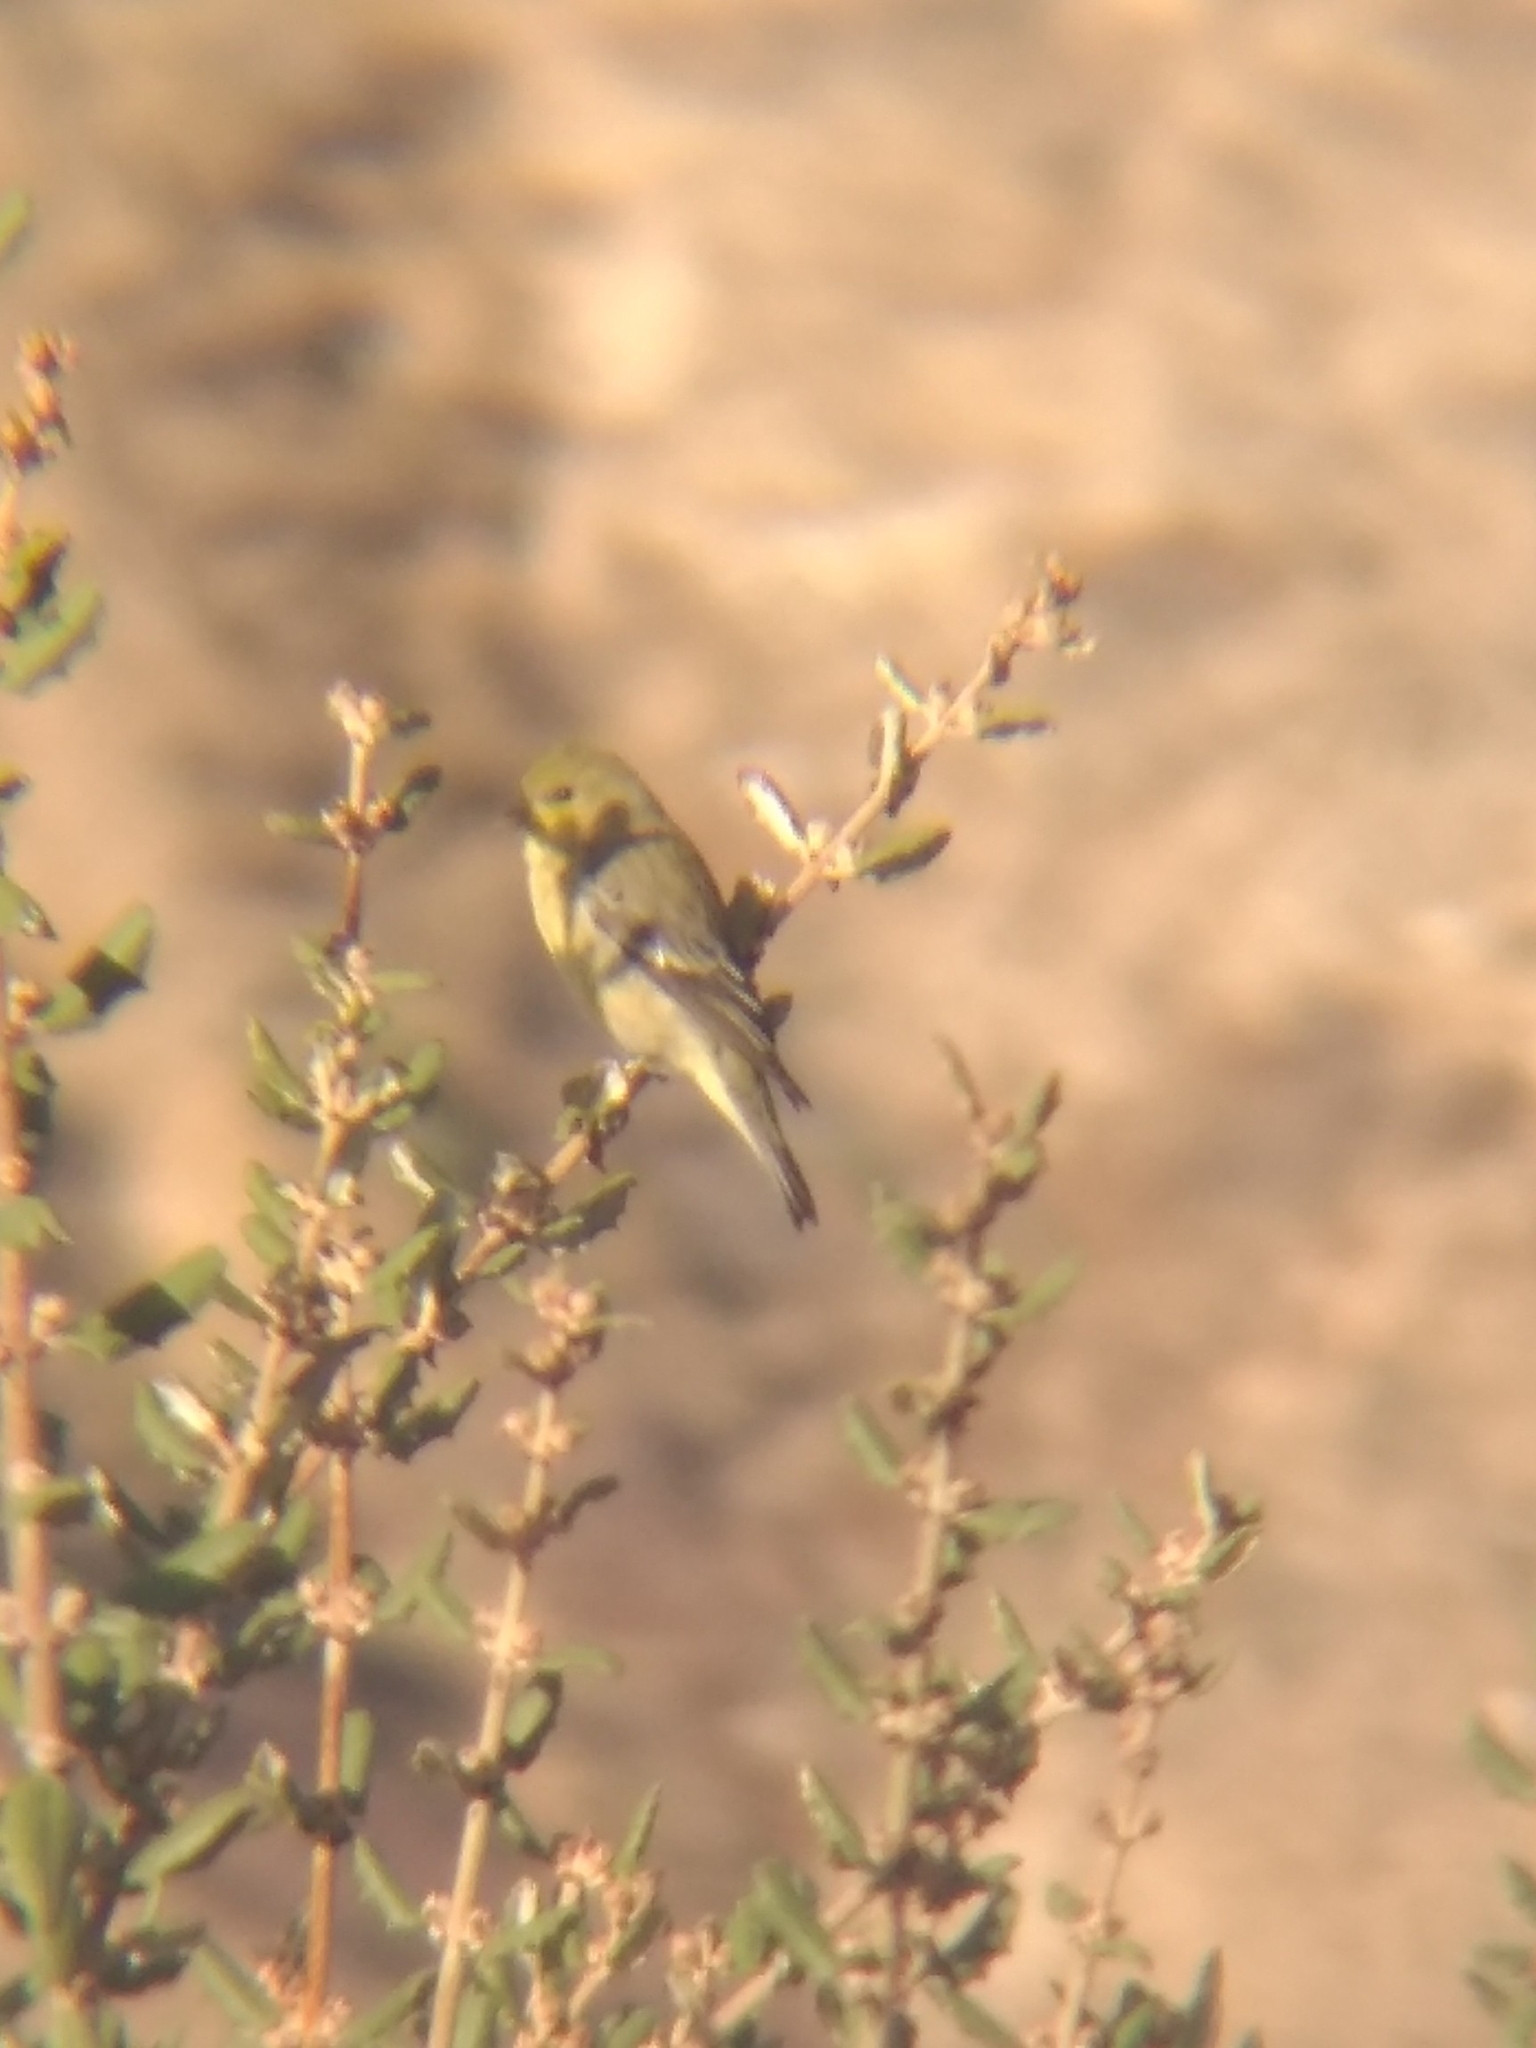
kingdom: Animalia
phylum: Chordata
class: Aves
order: Passeriformes
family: Fringillidae
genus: Spinus
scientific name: Spinus psaltria
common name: Lesser goldfinch
